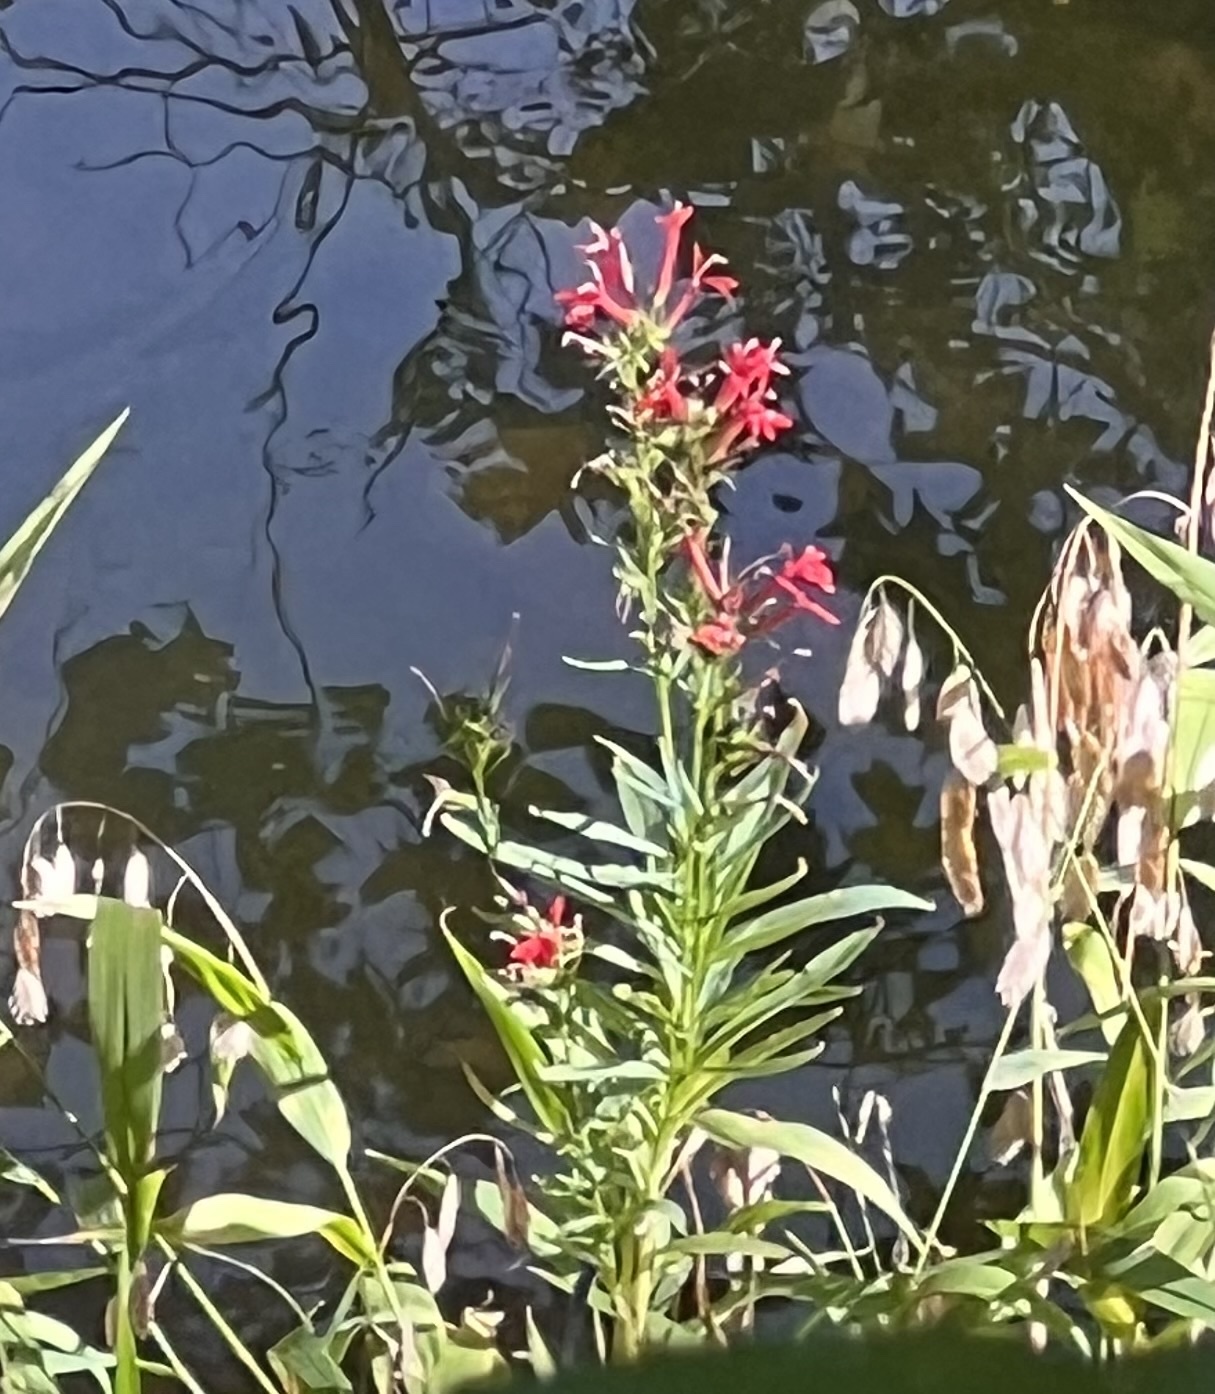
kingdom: Plantae
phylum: Tracheophyta
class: Magnoliopsida
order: Asterales
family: Campanulaceae
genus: Lobelia
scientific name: Lobelia cardinalis
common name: Cardinal flower
